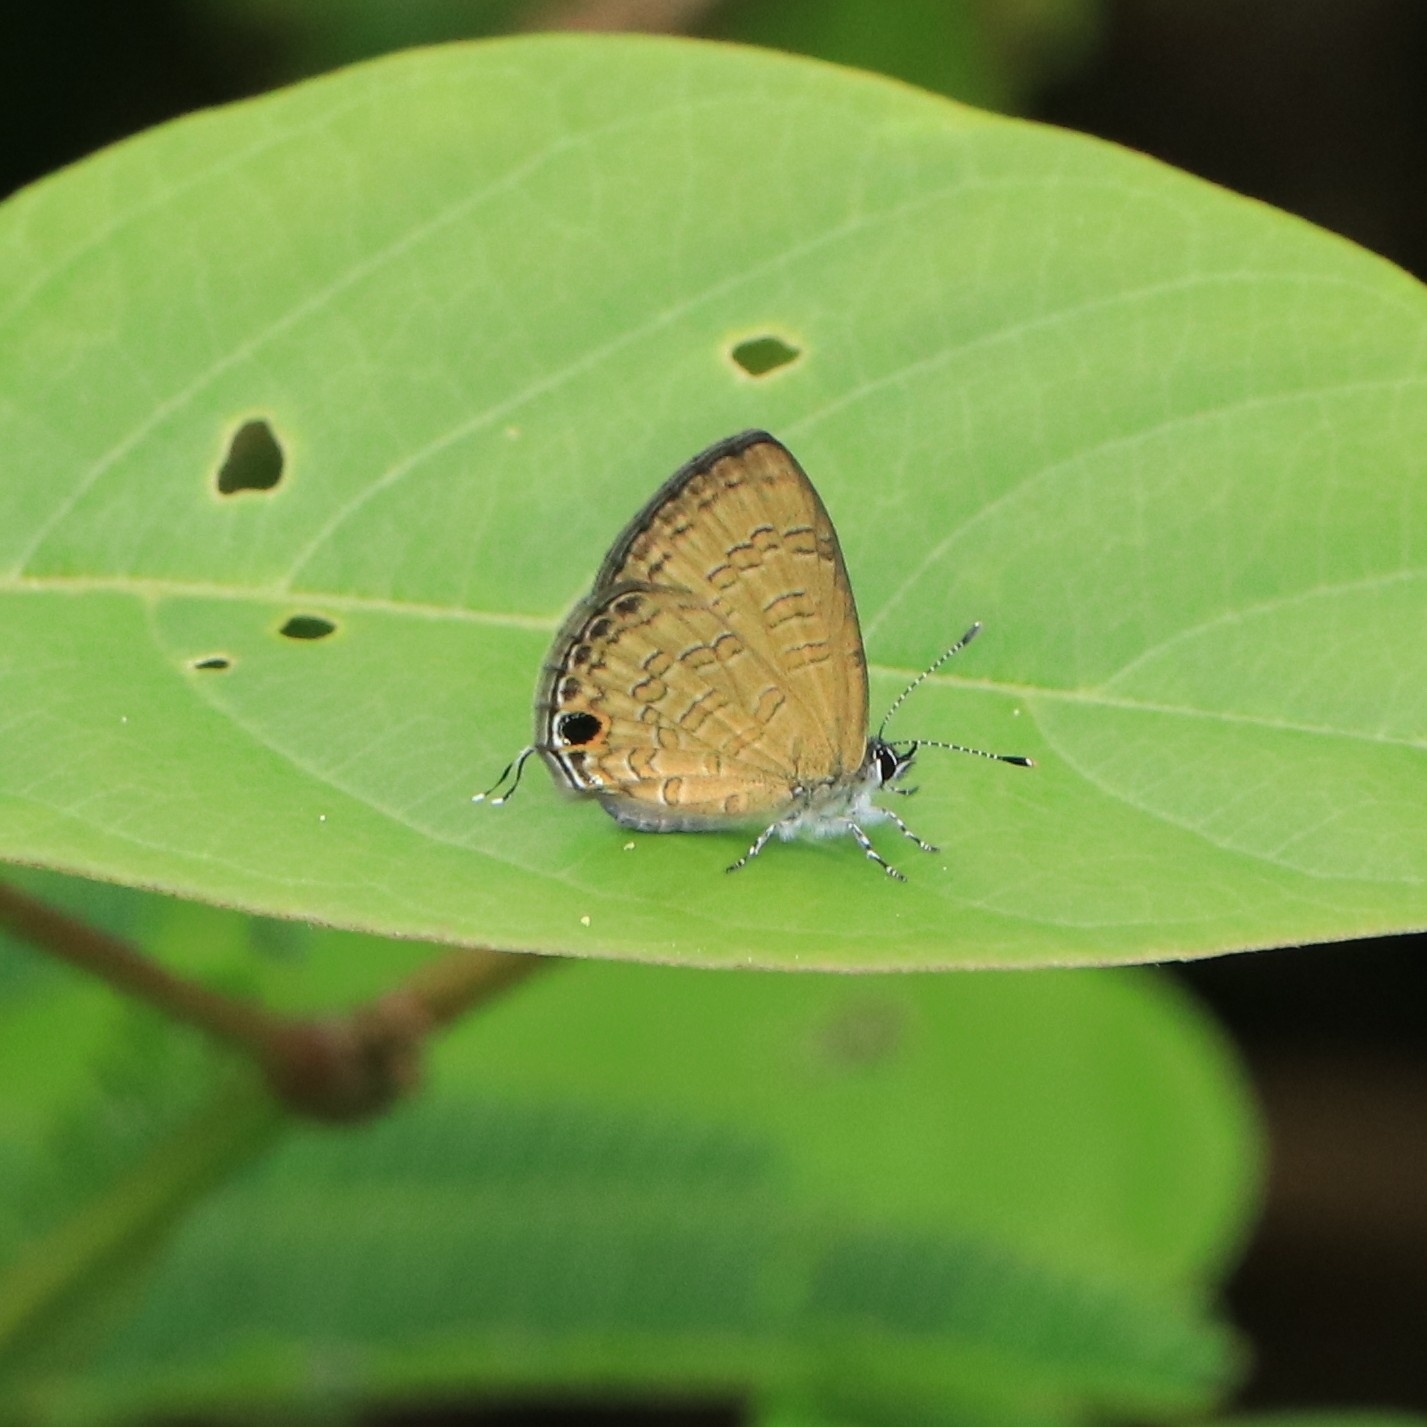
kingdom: Animalia
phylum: Arthropoda
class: Insecta
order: Lepidoptera
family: Lycaenidae
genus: Prosotas
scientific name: Prosotas nora
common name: Common line blue
